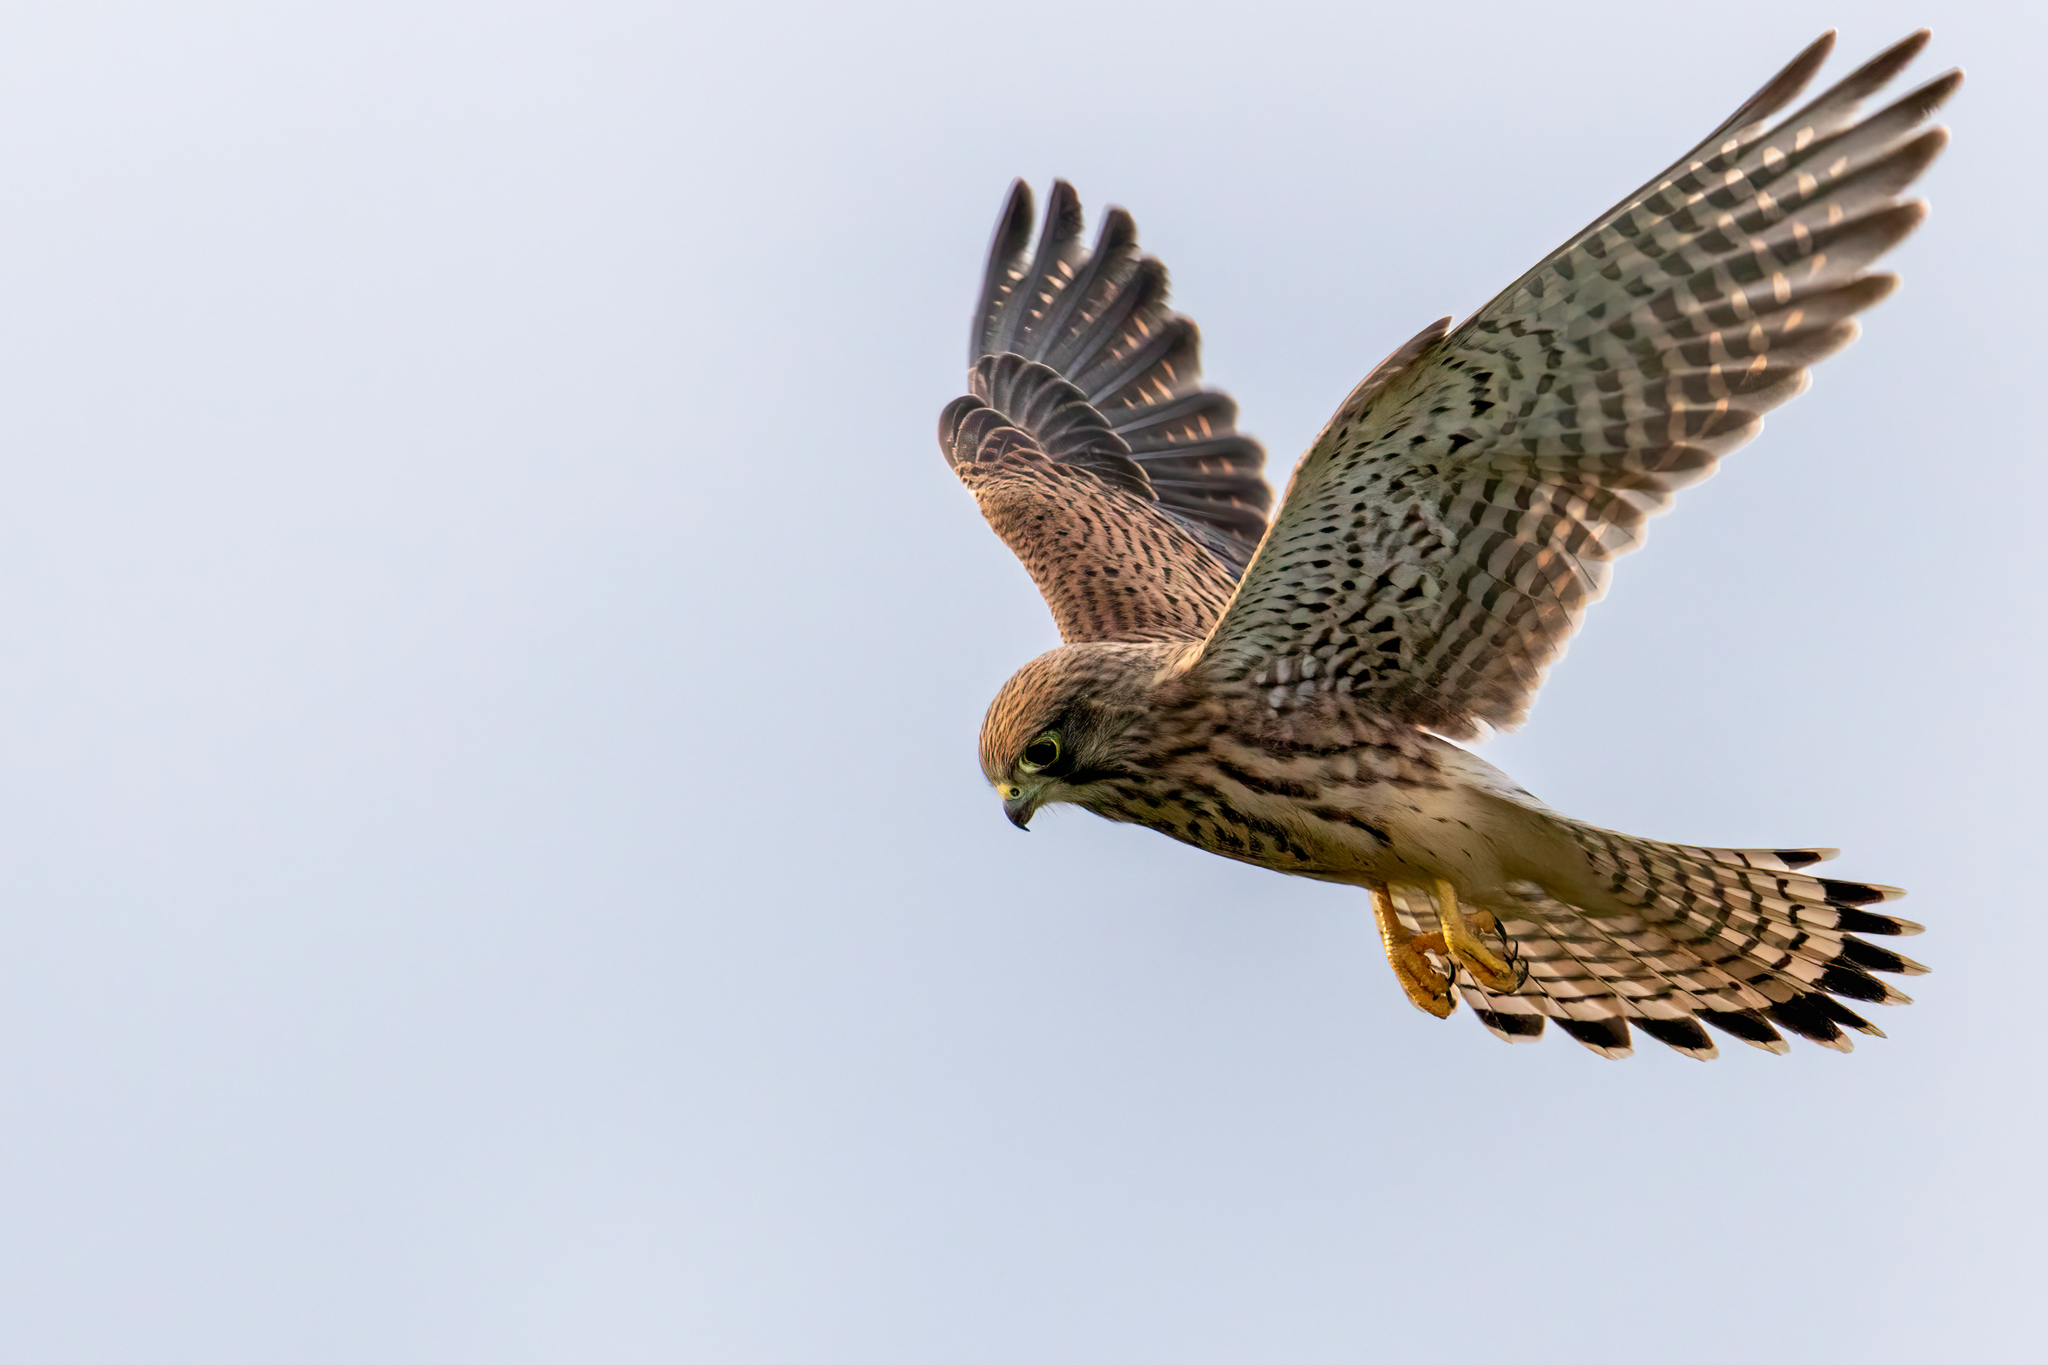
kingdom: Animalia
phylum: Chordata
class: Aves
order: Falconiformes
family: Falconidae
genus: Falco
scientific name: Falco tinnunculus
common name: Common kestrel
